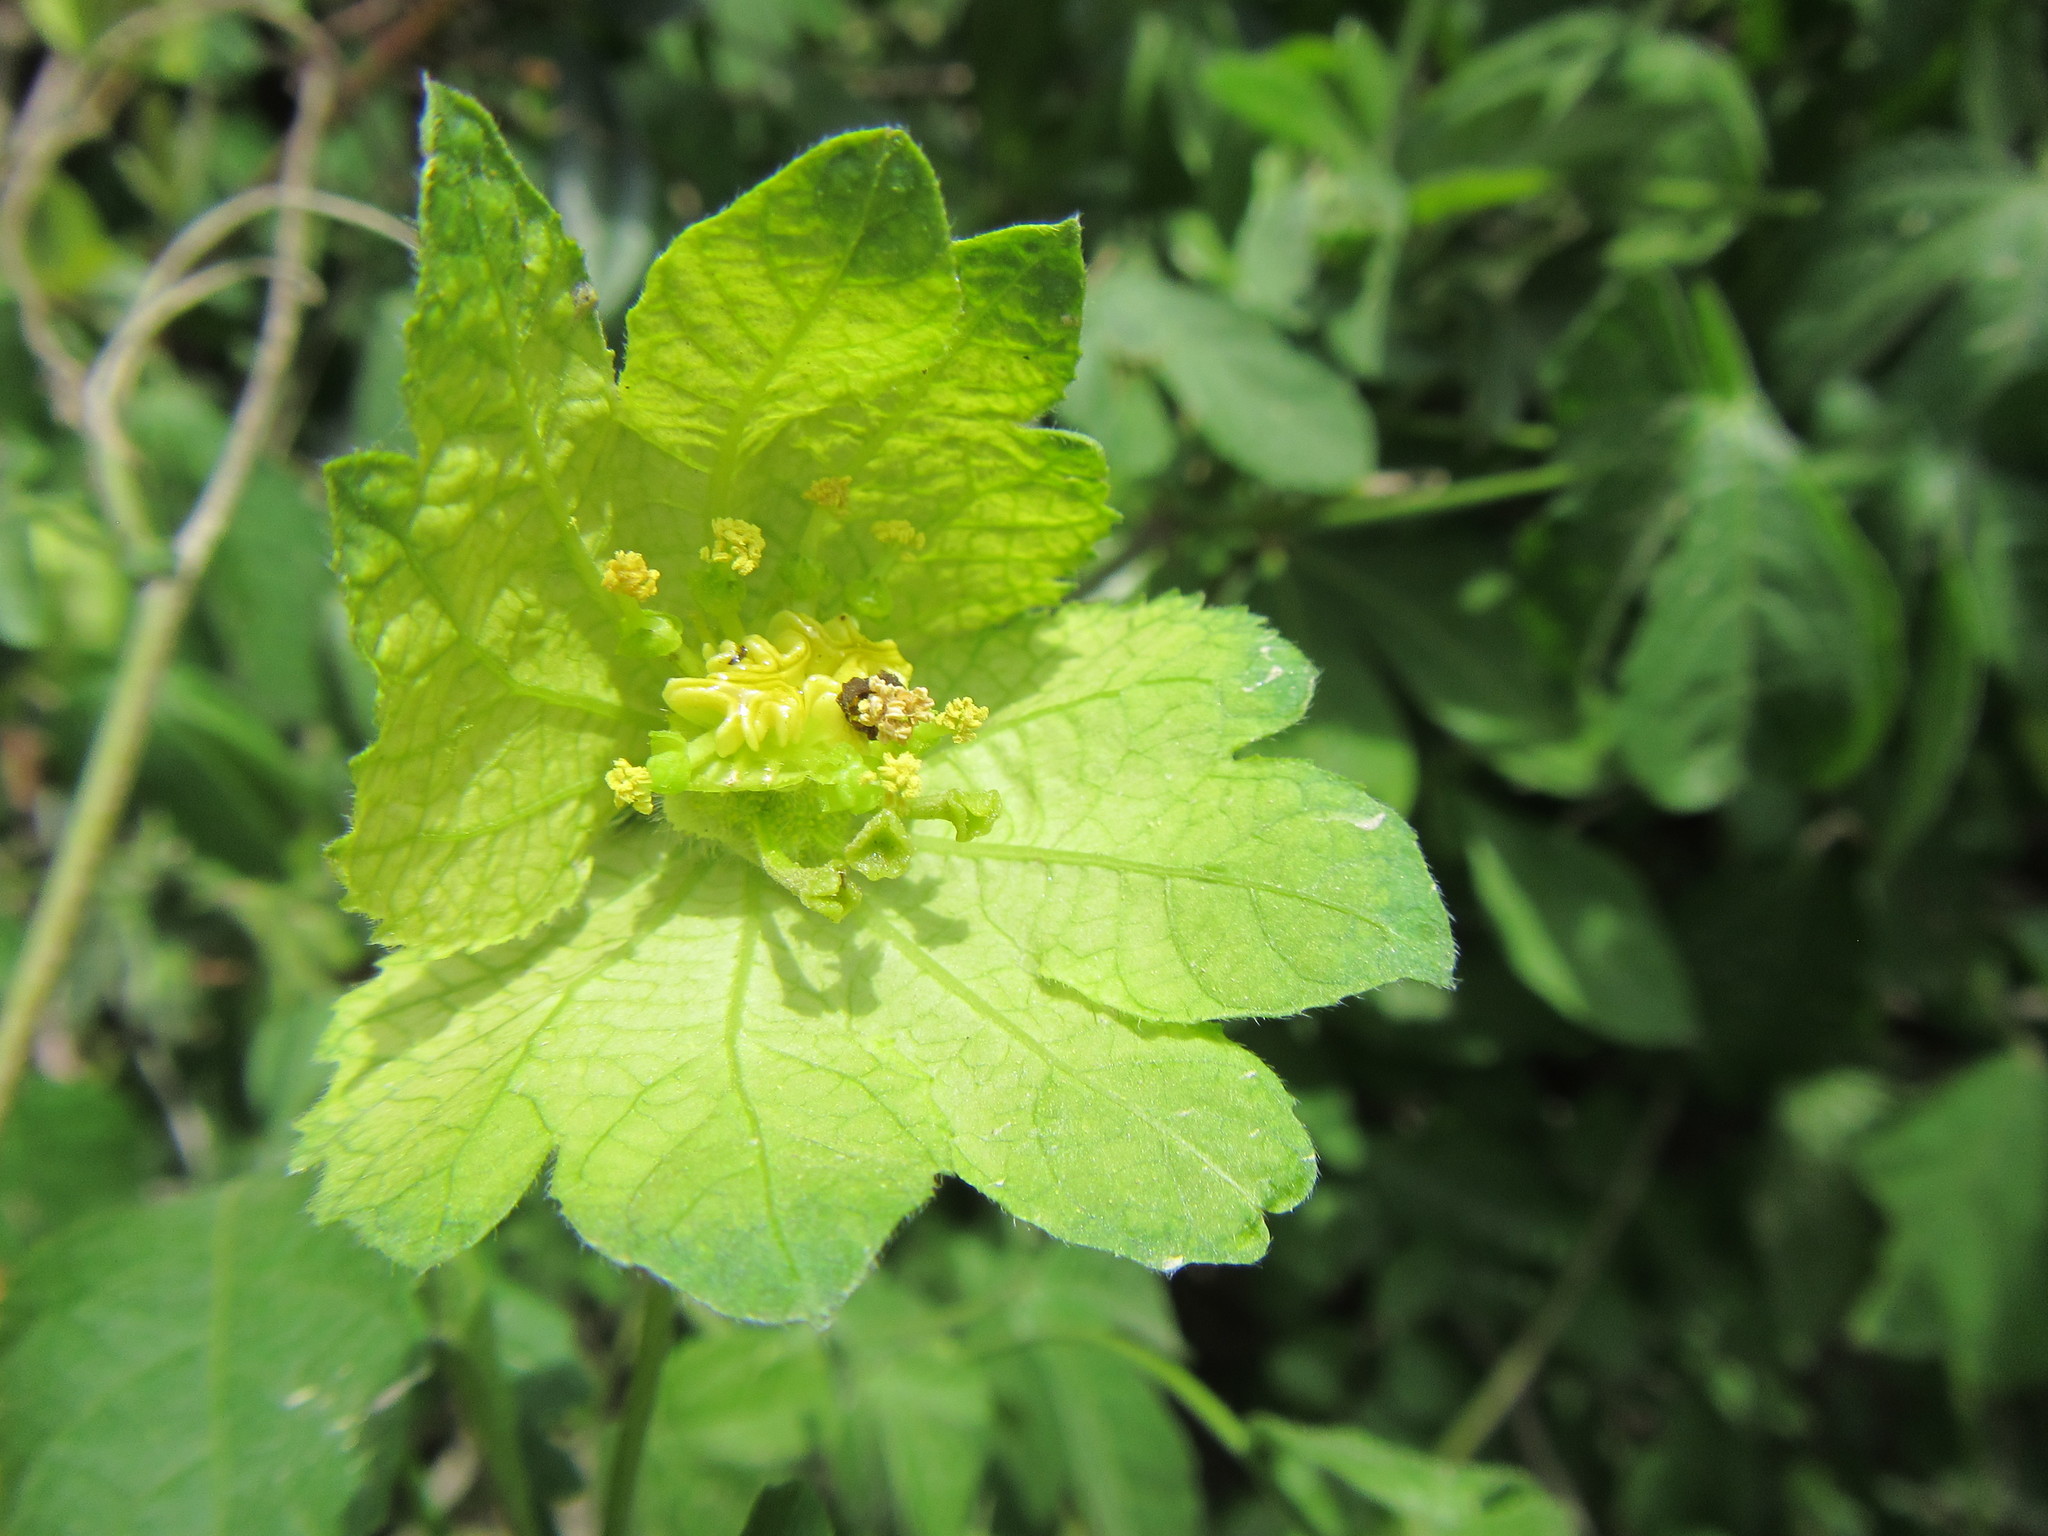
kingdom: Plantae
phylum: Tracheophyta
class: Magnoliopsida
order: Malpighiales
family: Euphorbiaceae
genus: Dalechampia
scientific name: Dalechampia capensis
